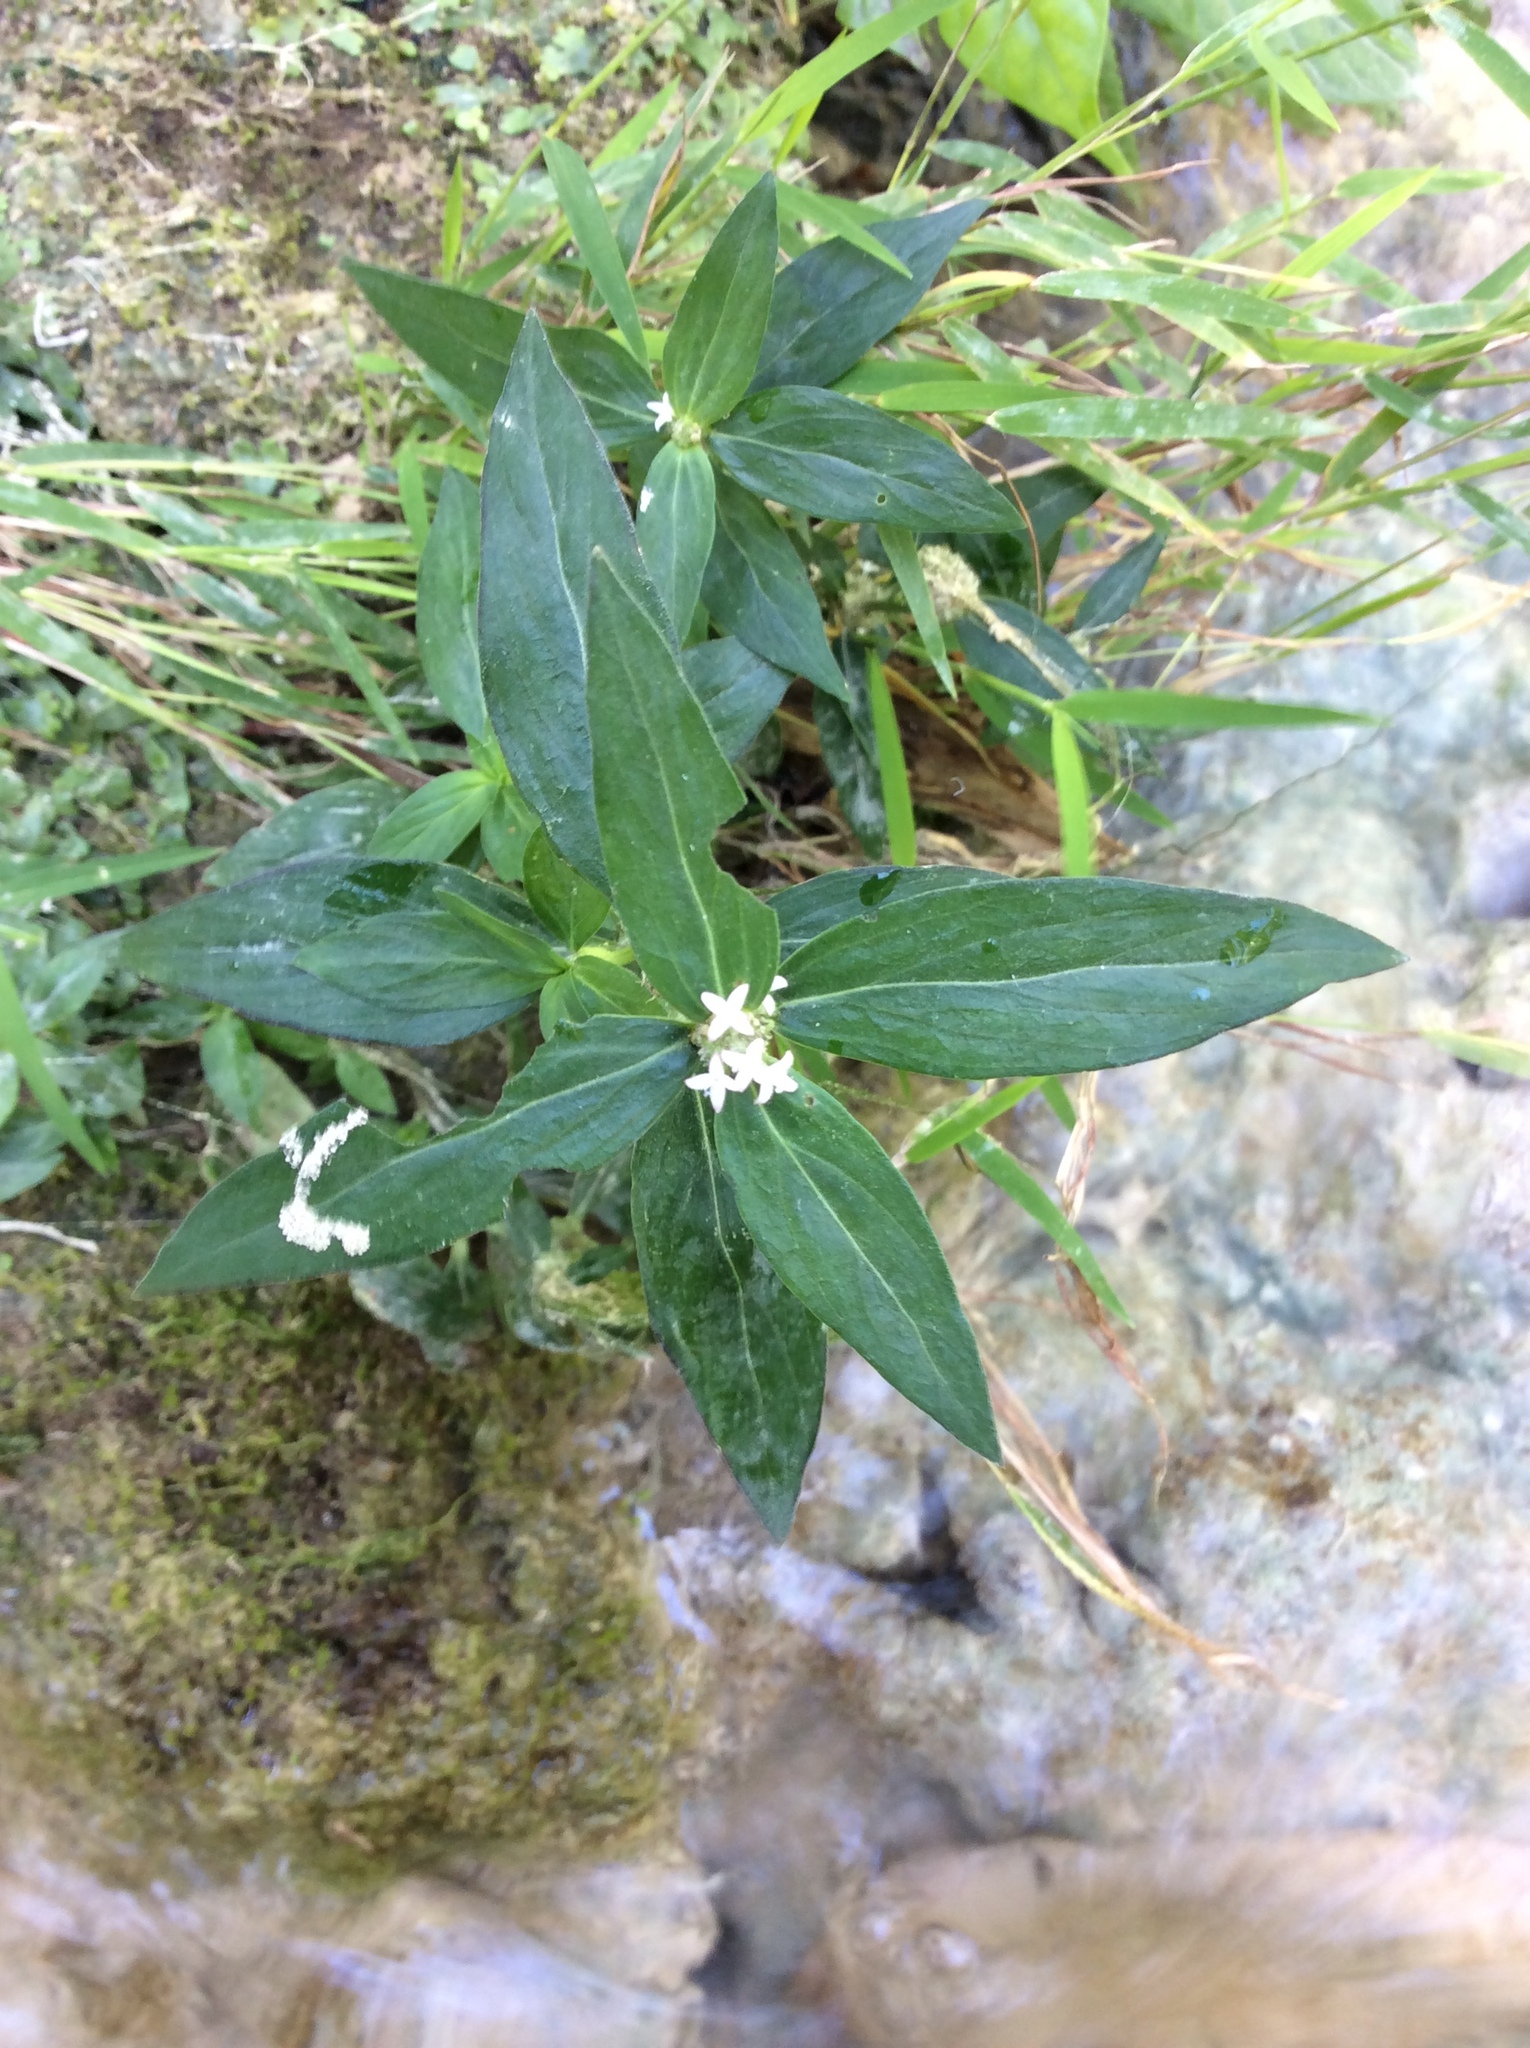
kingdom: Plantae
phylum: Tracheophyta
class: Magnoliopsida
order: Gentianales
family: Rubiaceae
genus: Spermacoce
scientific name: Spermacoce remota
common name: Woodland false buttonweed
